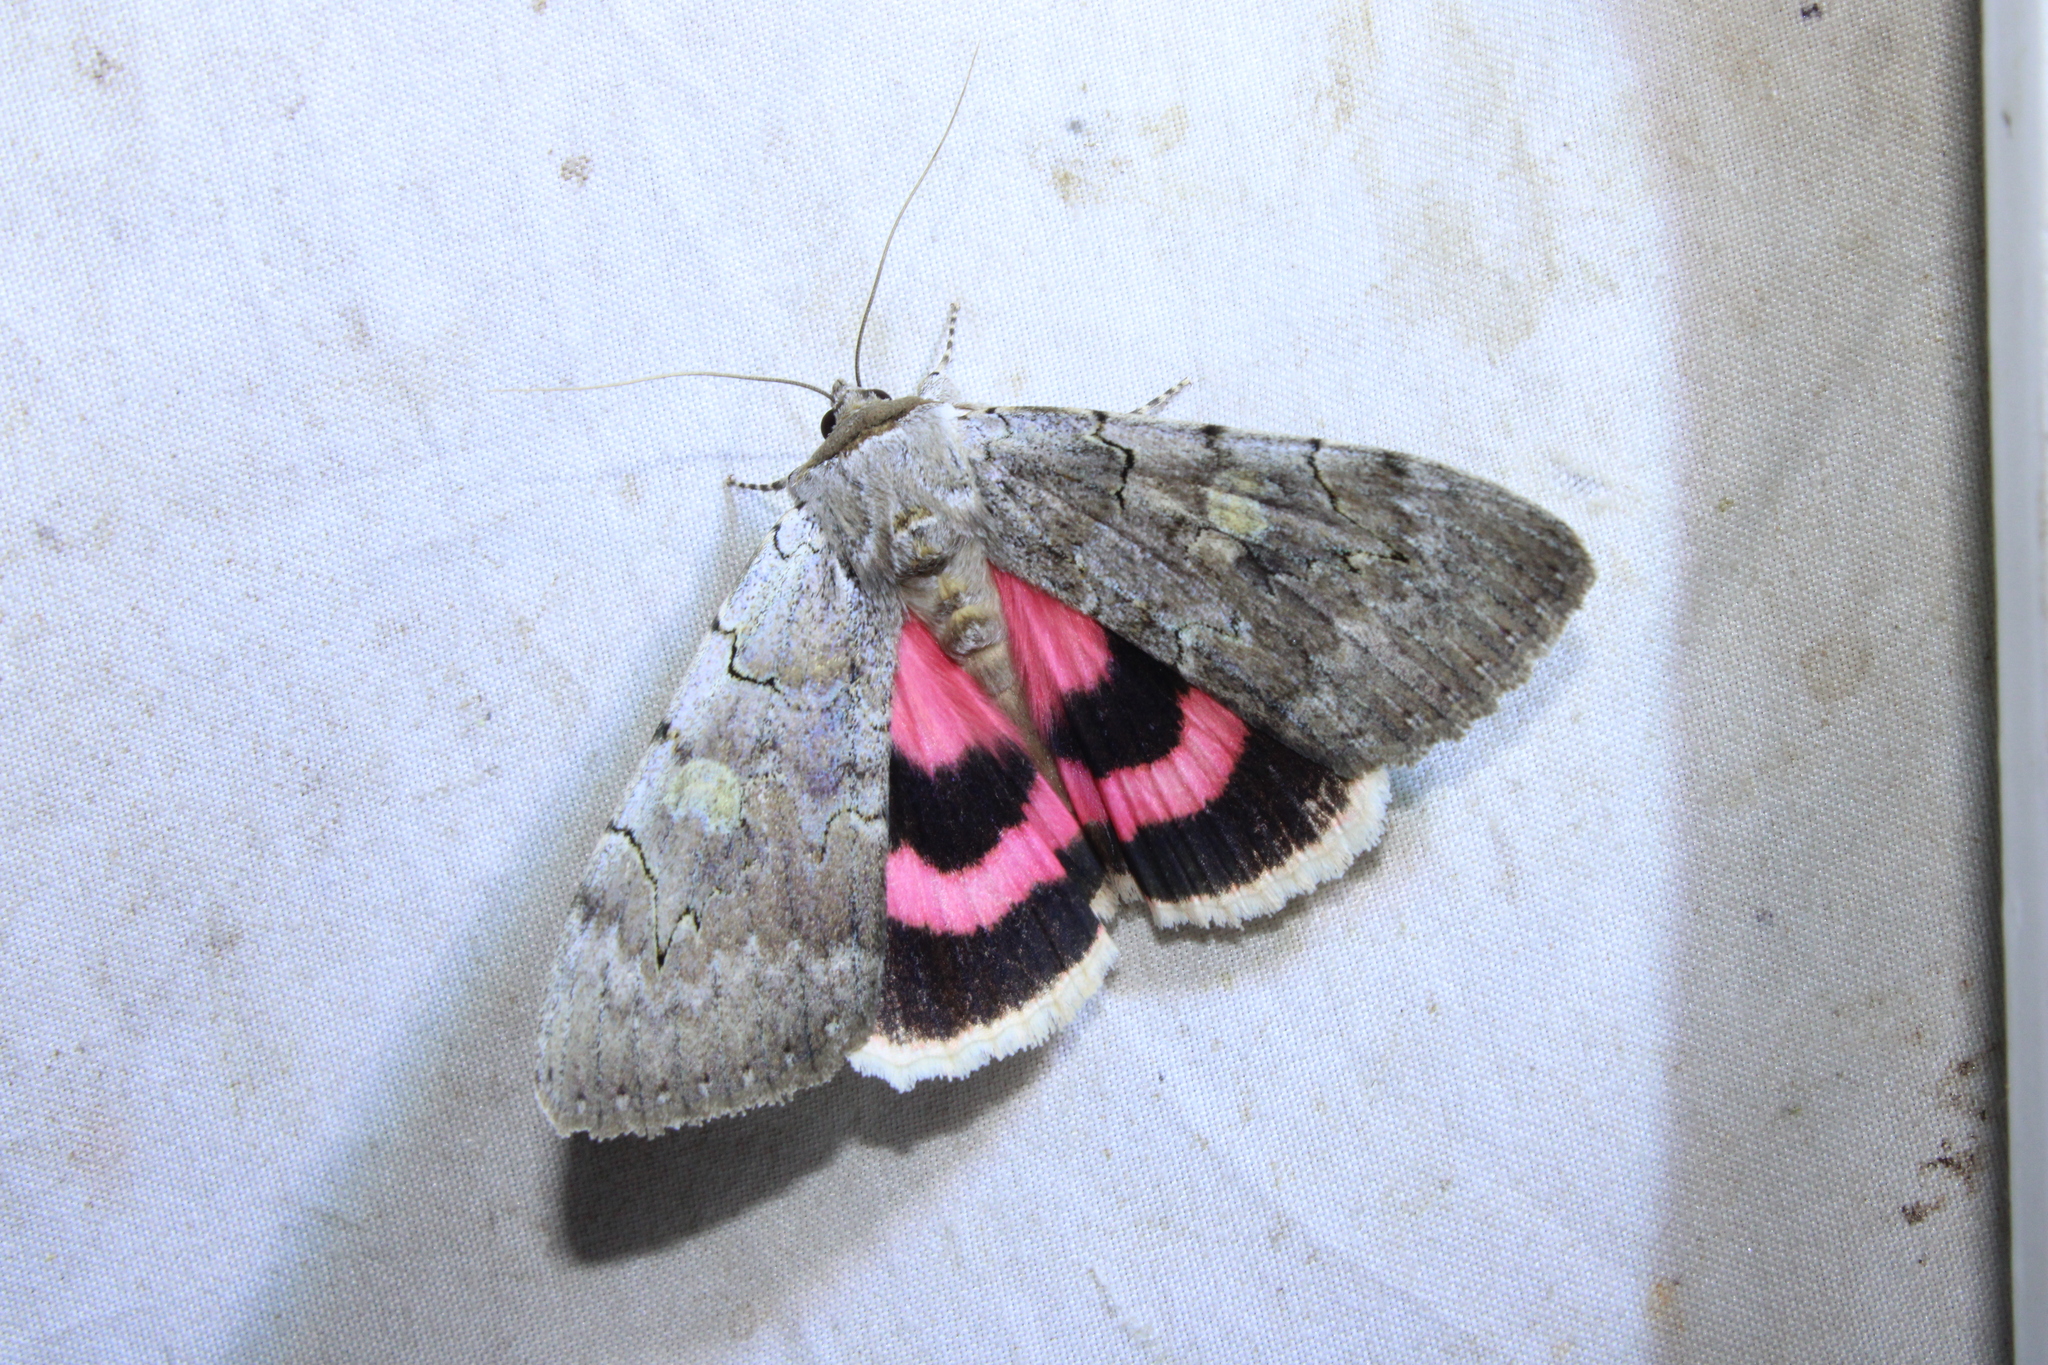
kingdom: Animalia
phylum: Arthropoda
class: Insecta
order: Lepidoptera
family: Erebidae
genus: Catocala
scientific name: Catocala concumbens
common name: Pink underwing
